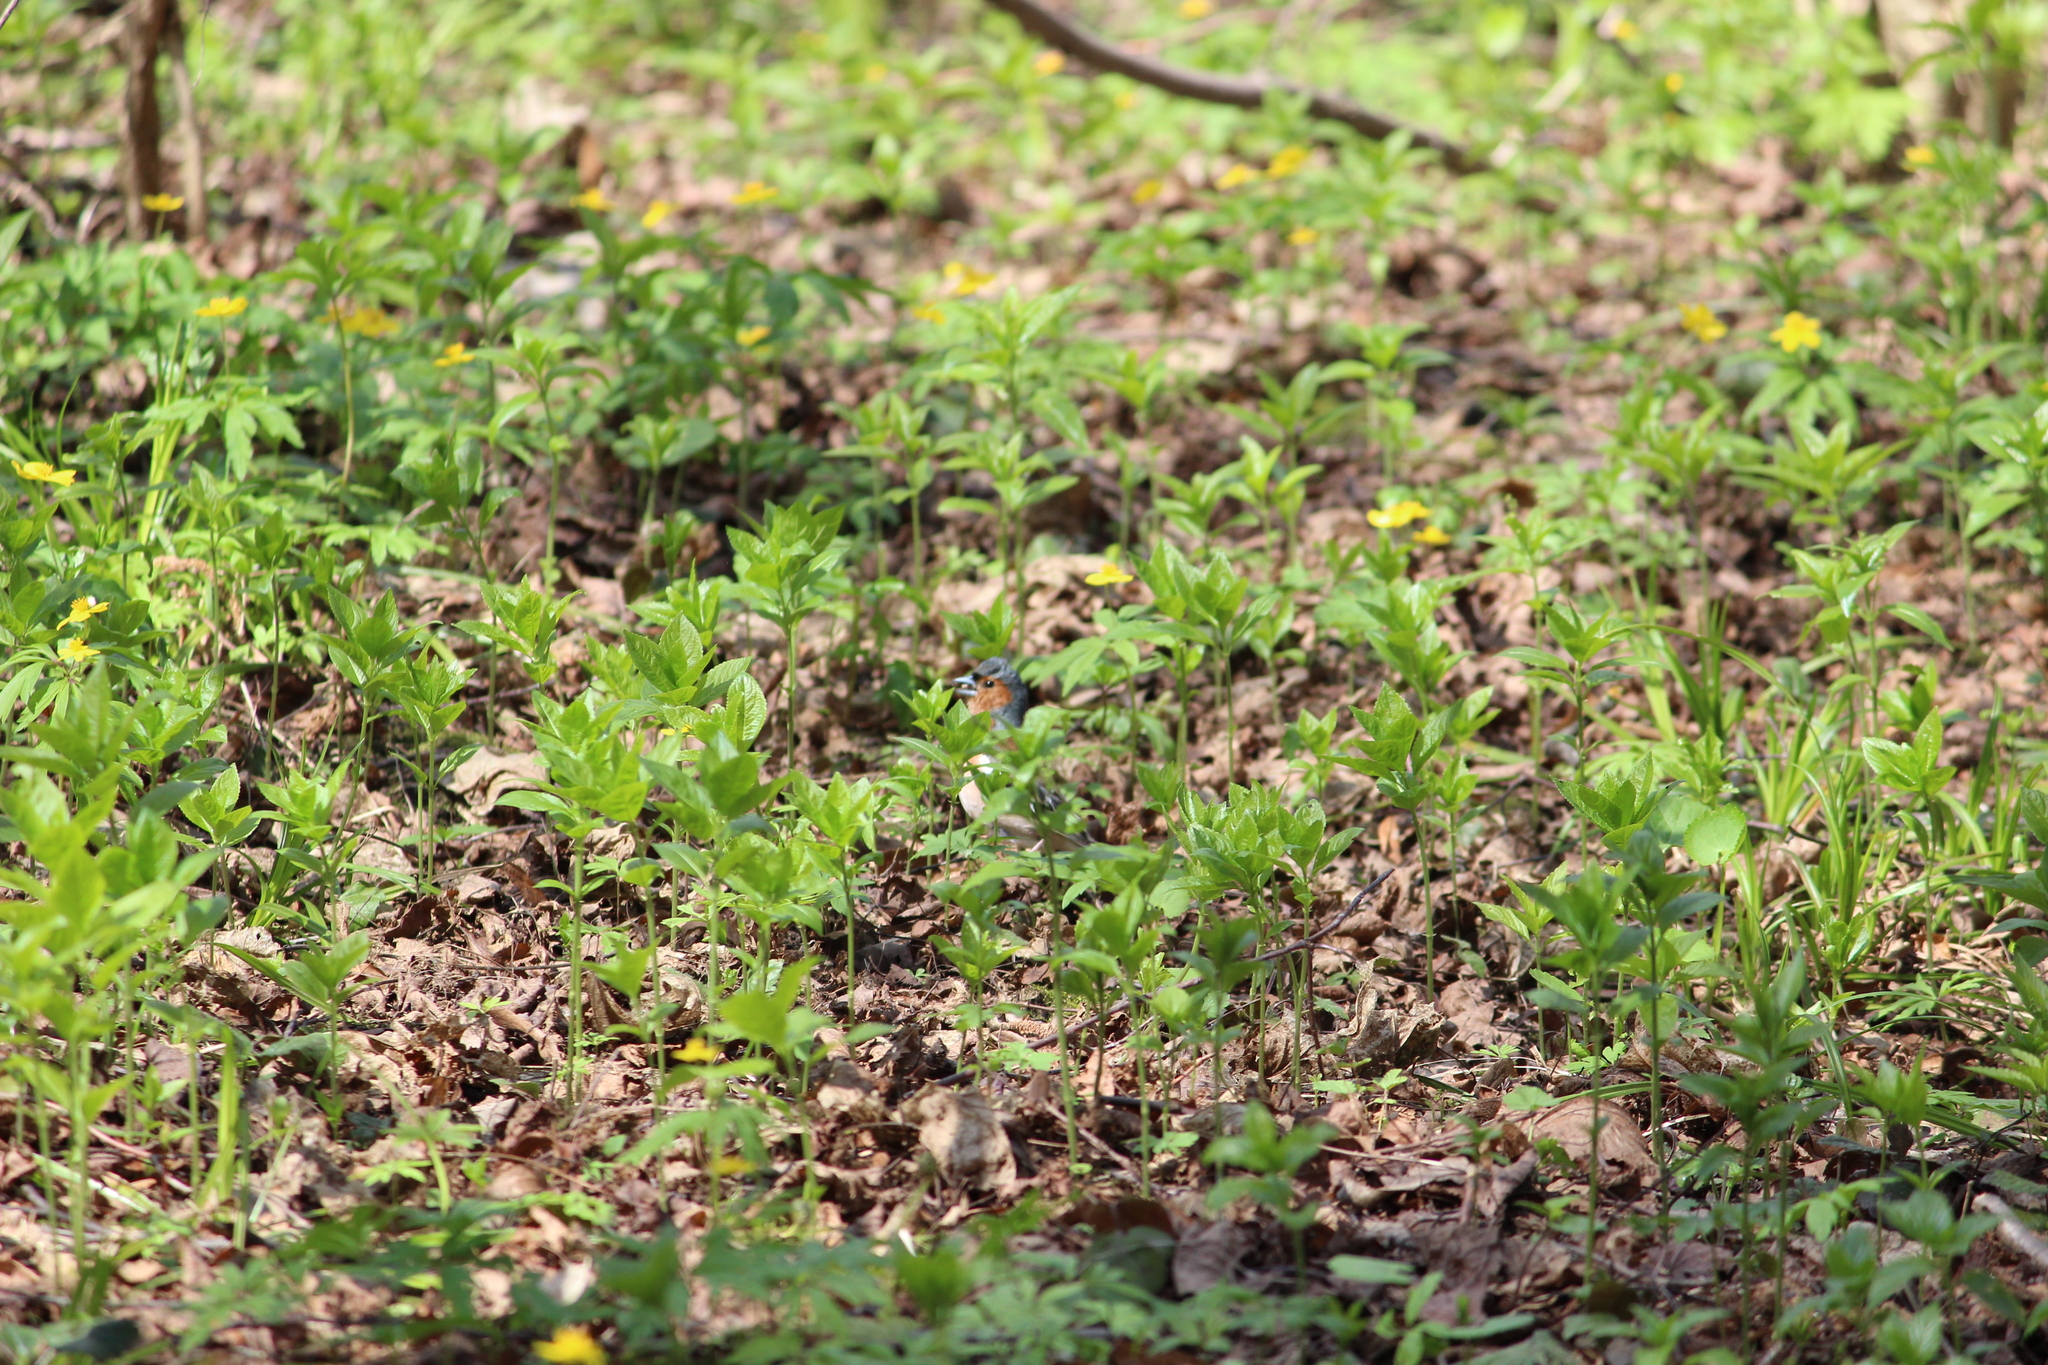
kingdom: Animalia
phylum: Chordata
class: Aves
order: Passeriformes
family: Fringillidae
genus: Fringilla
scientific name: Fringilla coelebs
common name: Common chaffinch
